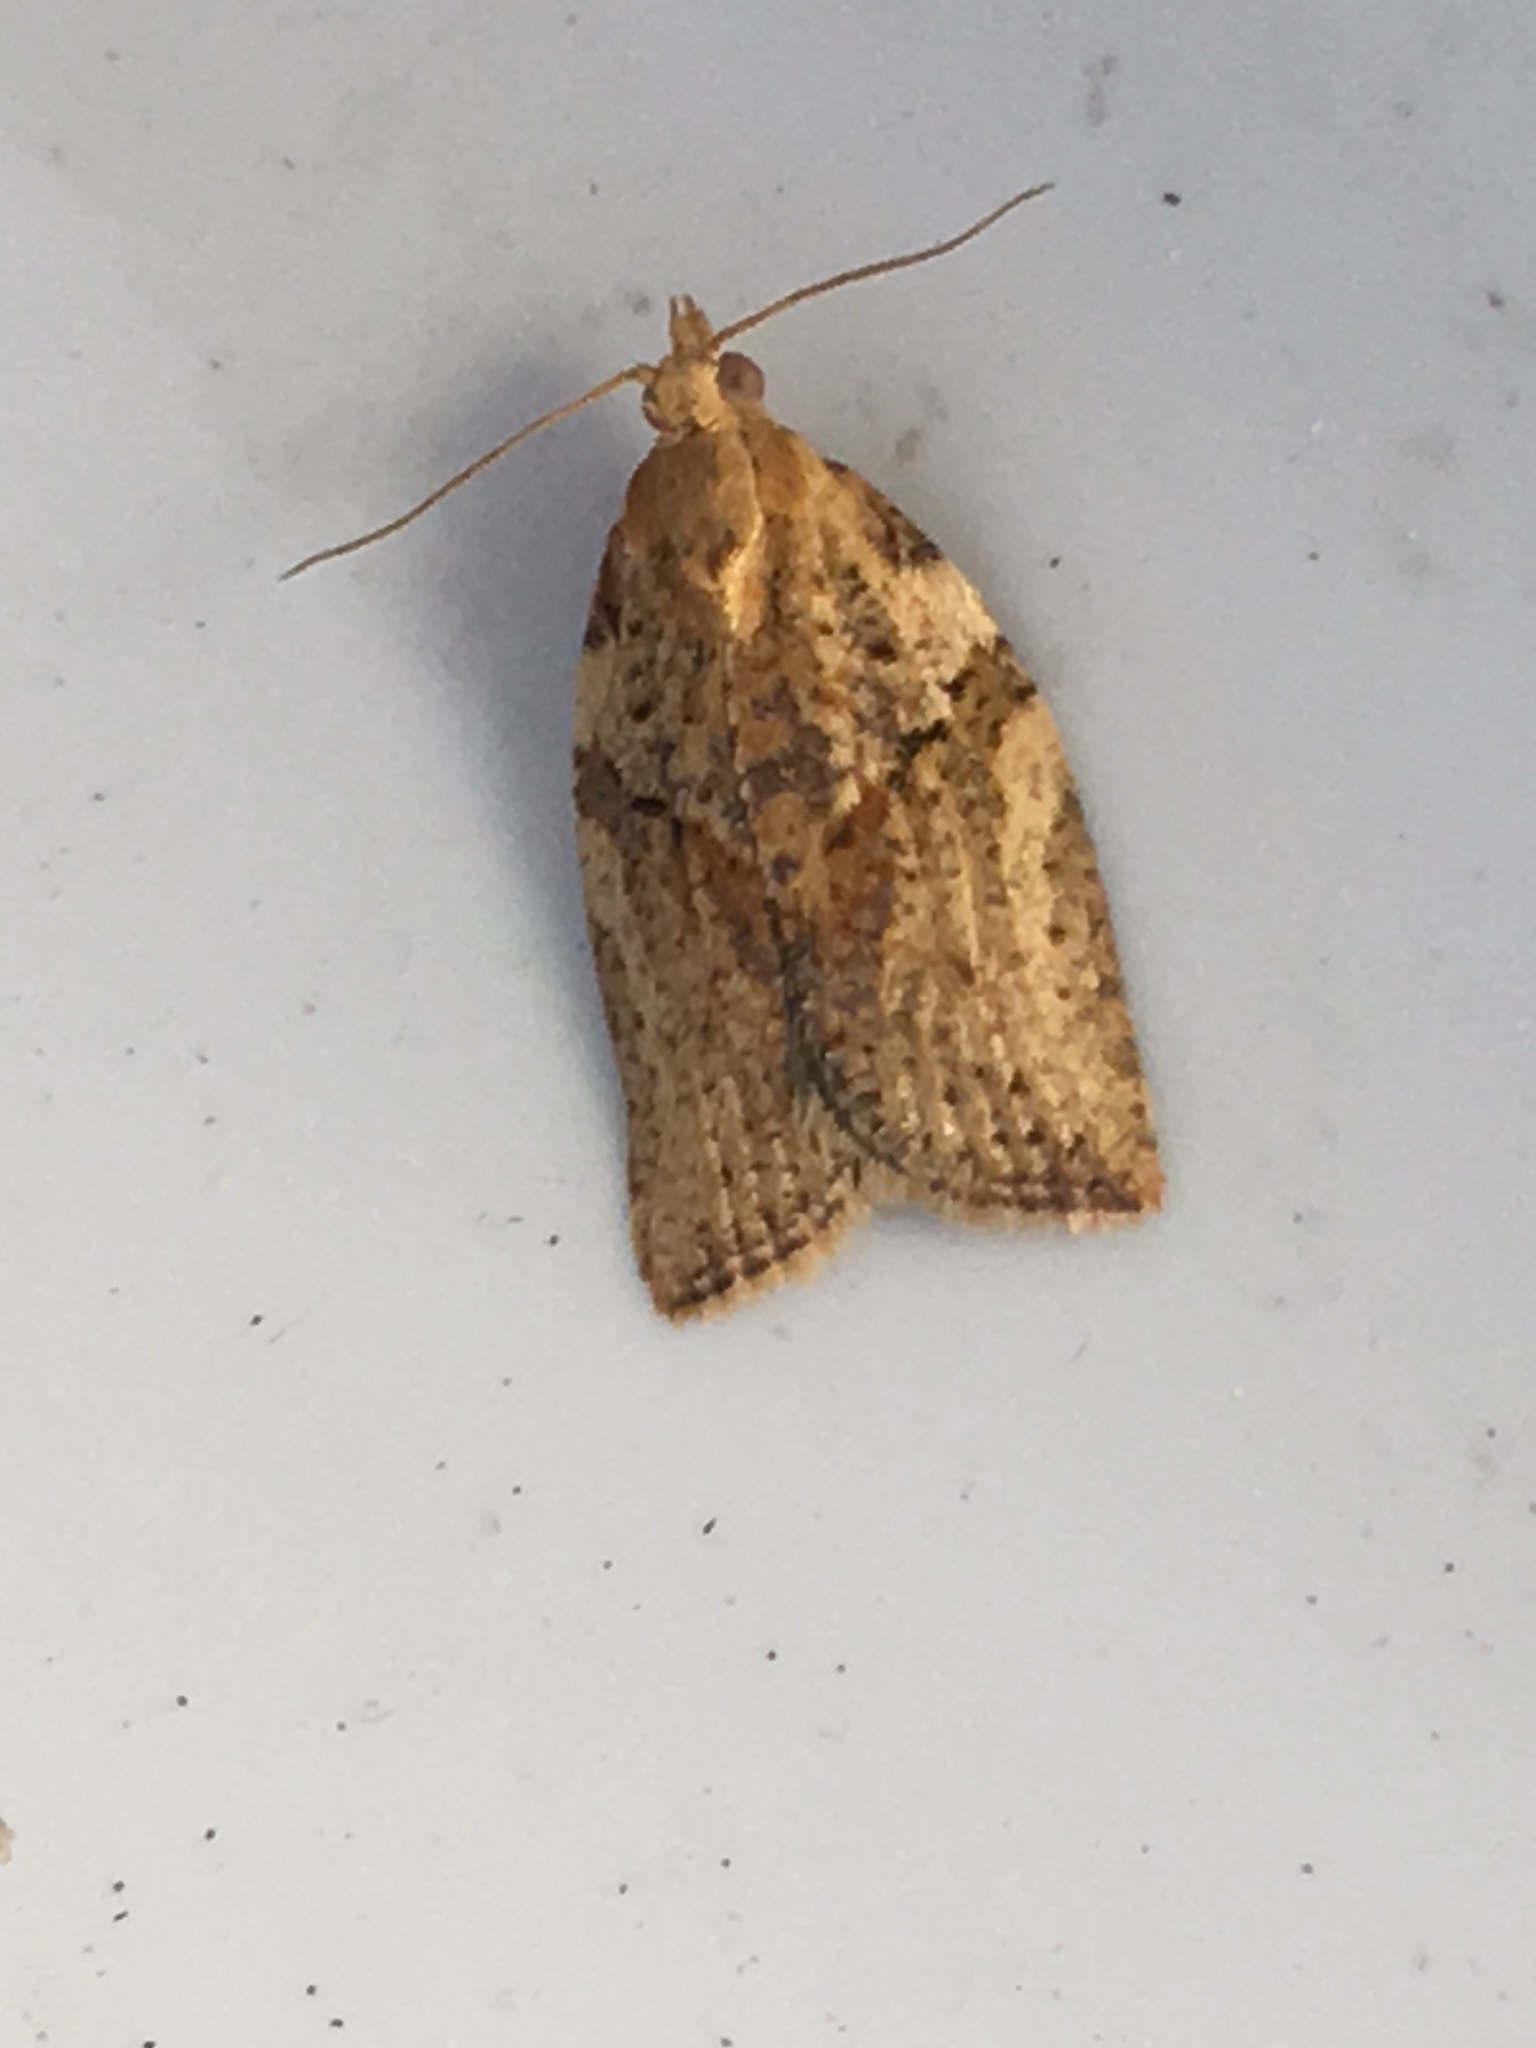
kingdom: Animalia
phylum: Arthropoda
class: Insecta
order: Lepidoptera
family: Tortricidae
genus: Epiphyas
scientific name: Epiphyas postvittana
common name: Light brown apple moth
